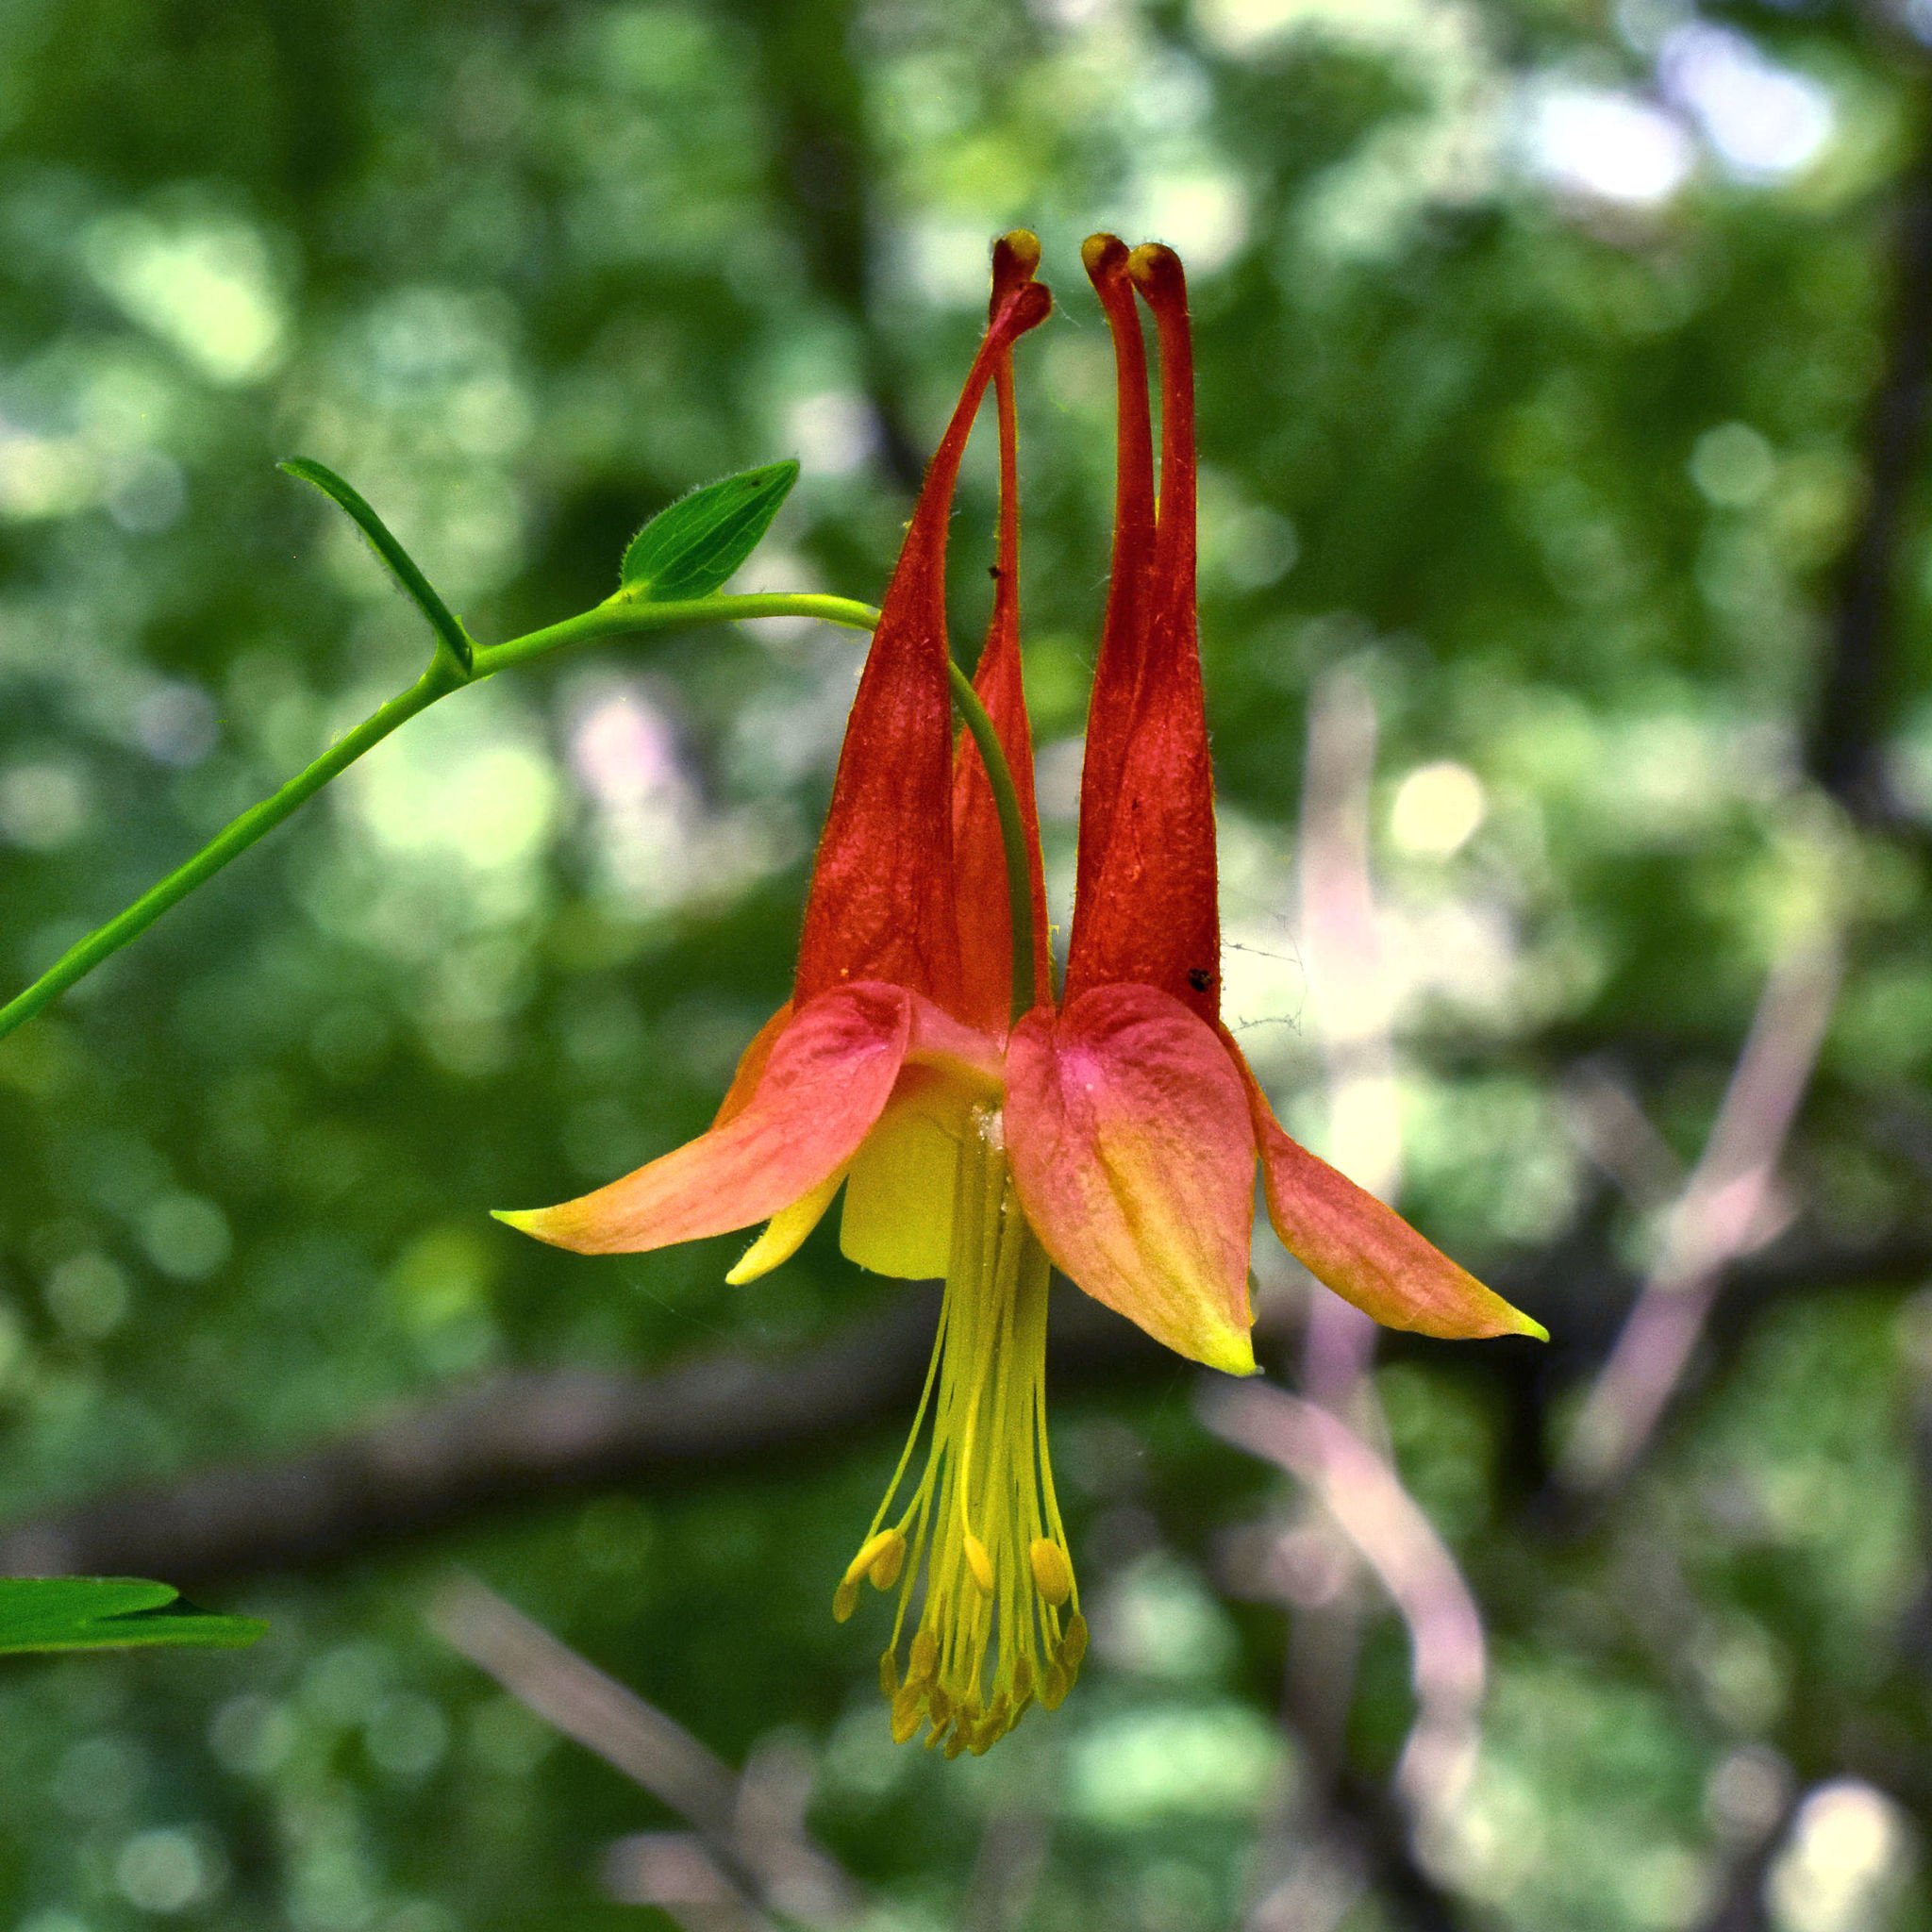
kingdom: Plantae
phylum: Tracheophyta
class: Magnoliopsida
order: Ranunculales
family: Ranunculaceae
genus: Aquilegia
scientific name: Aquilegia canadensis
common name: American columbine
